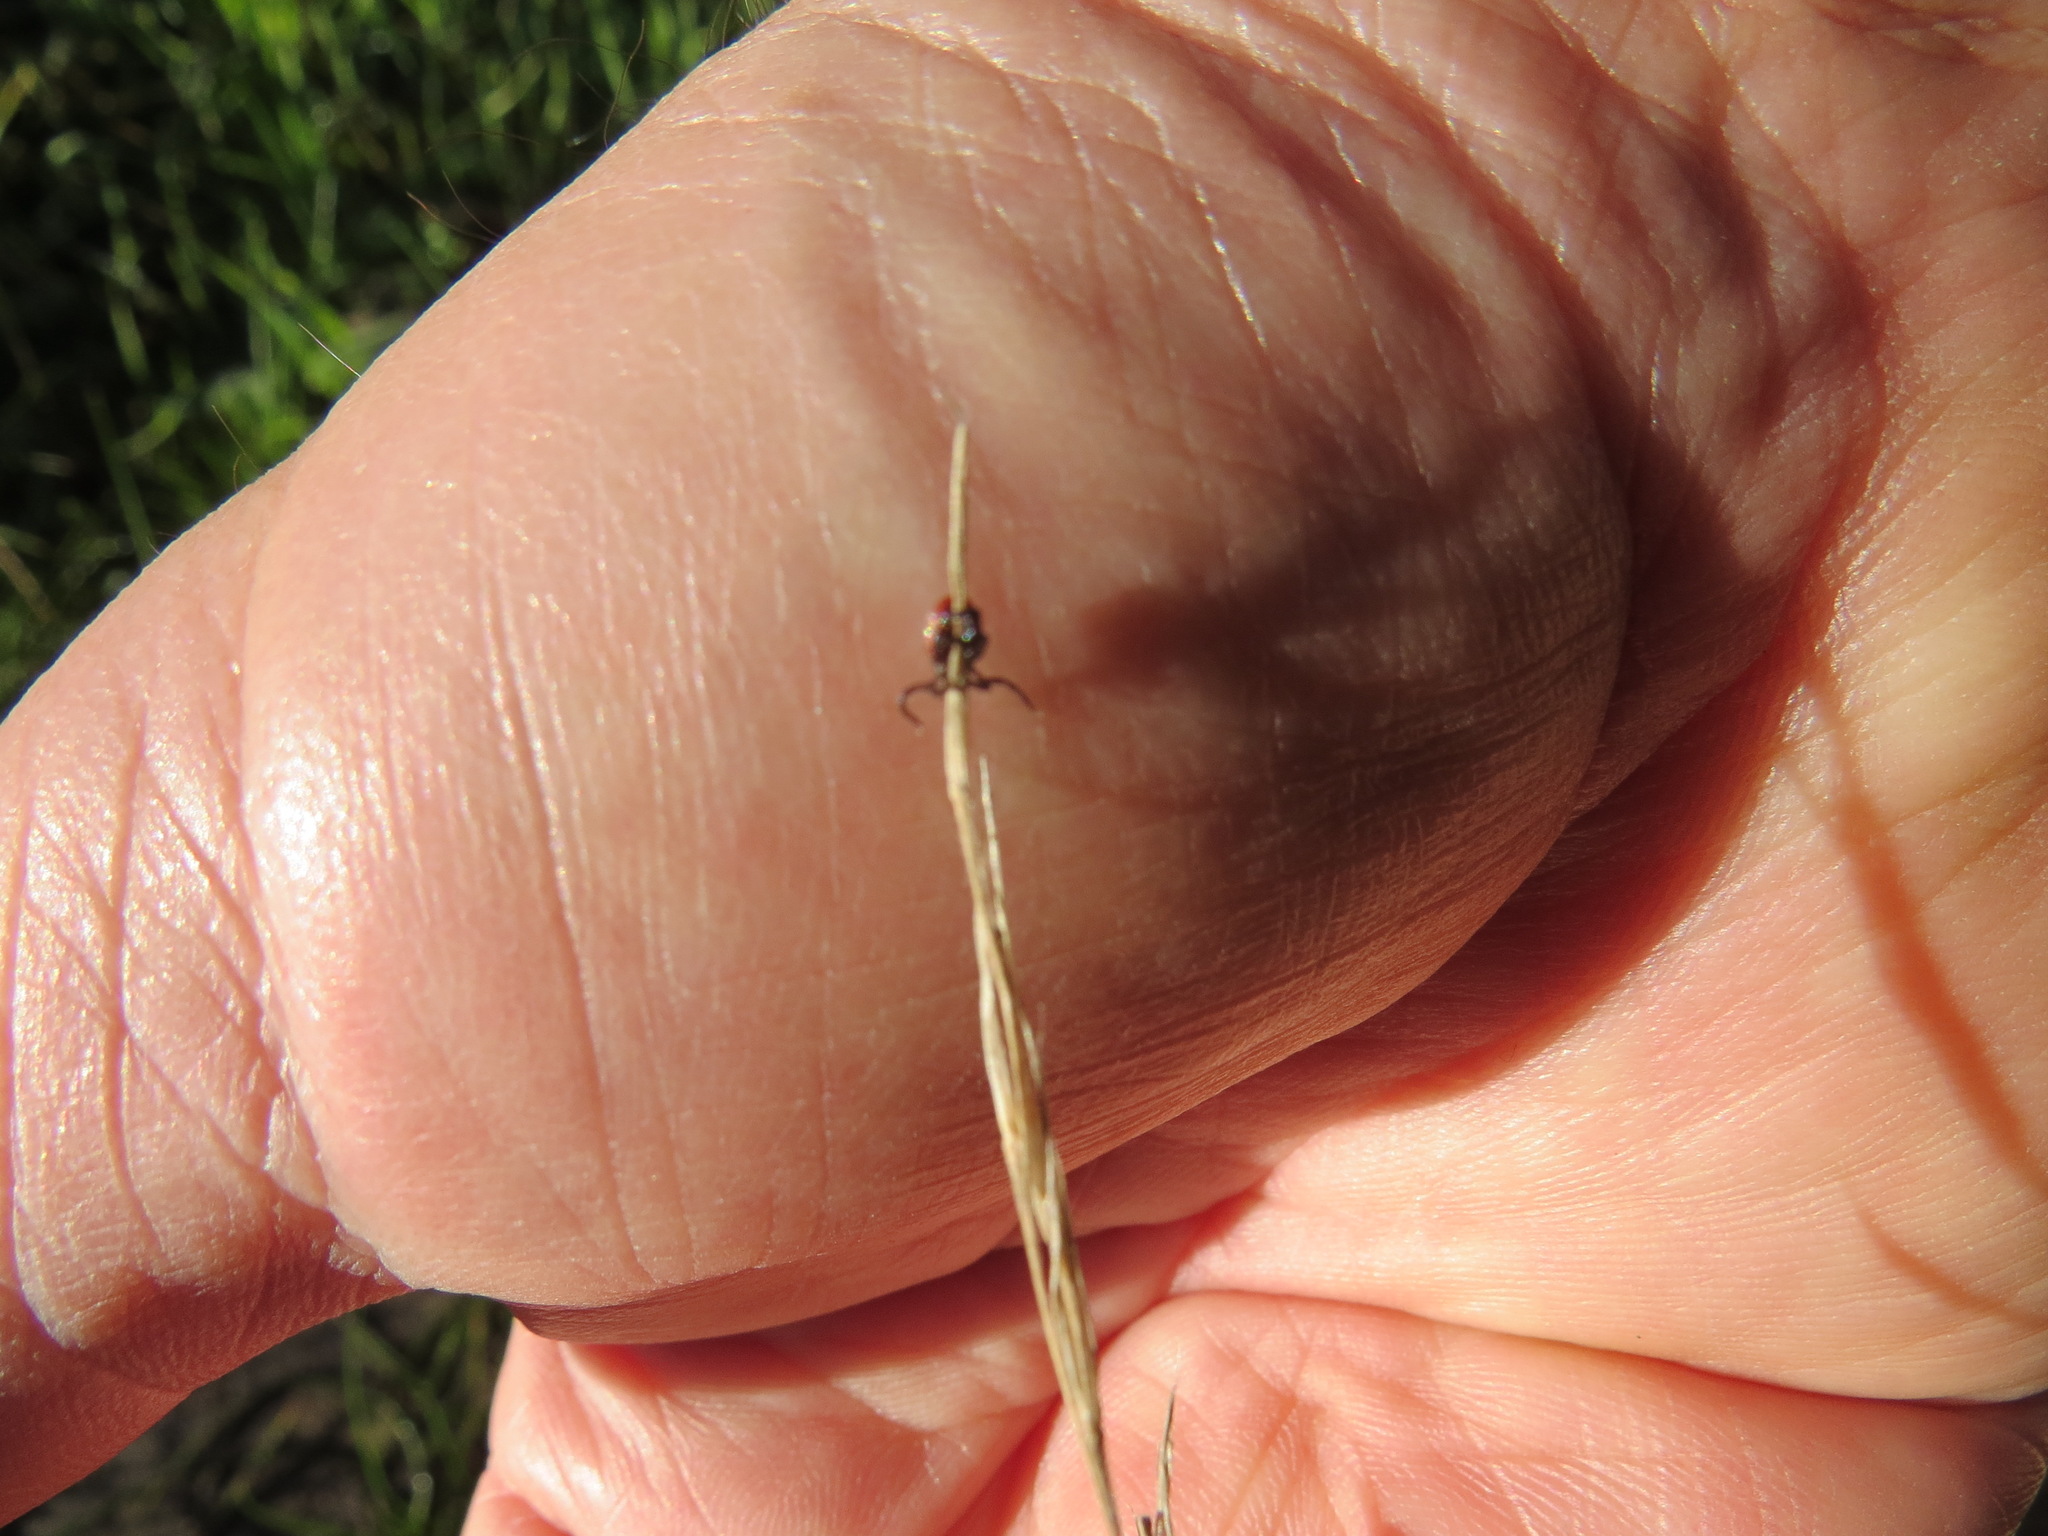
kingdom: Animalia
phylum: Arthropoda
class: Arachnida
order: Ixodida
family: Ixodidae
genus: Ixodes
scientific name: Ixodes pacificus
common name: California black-legged tick
